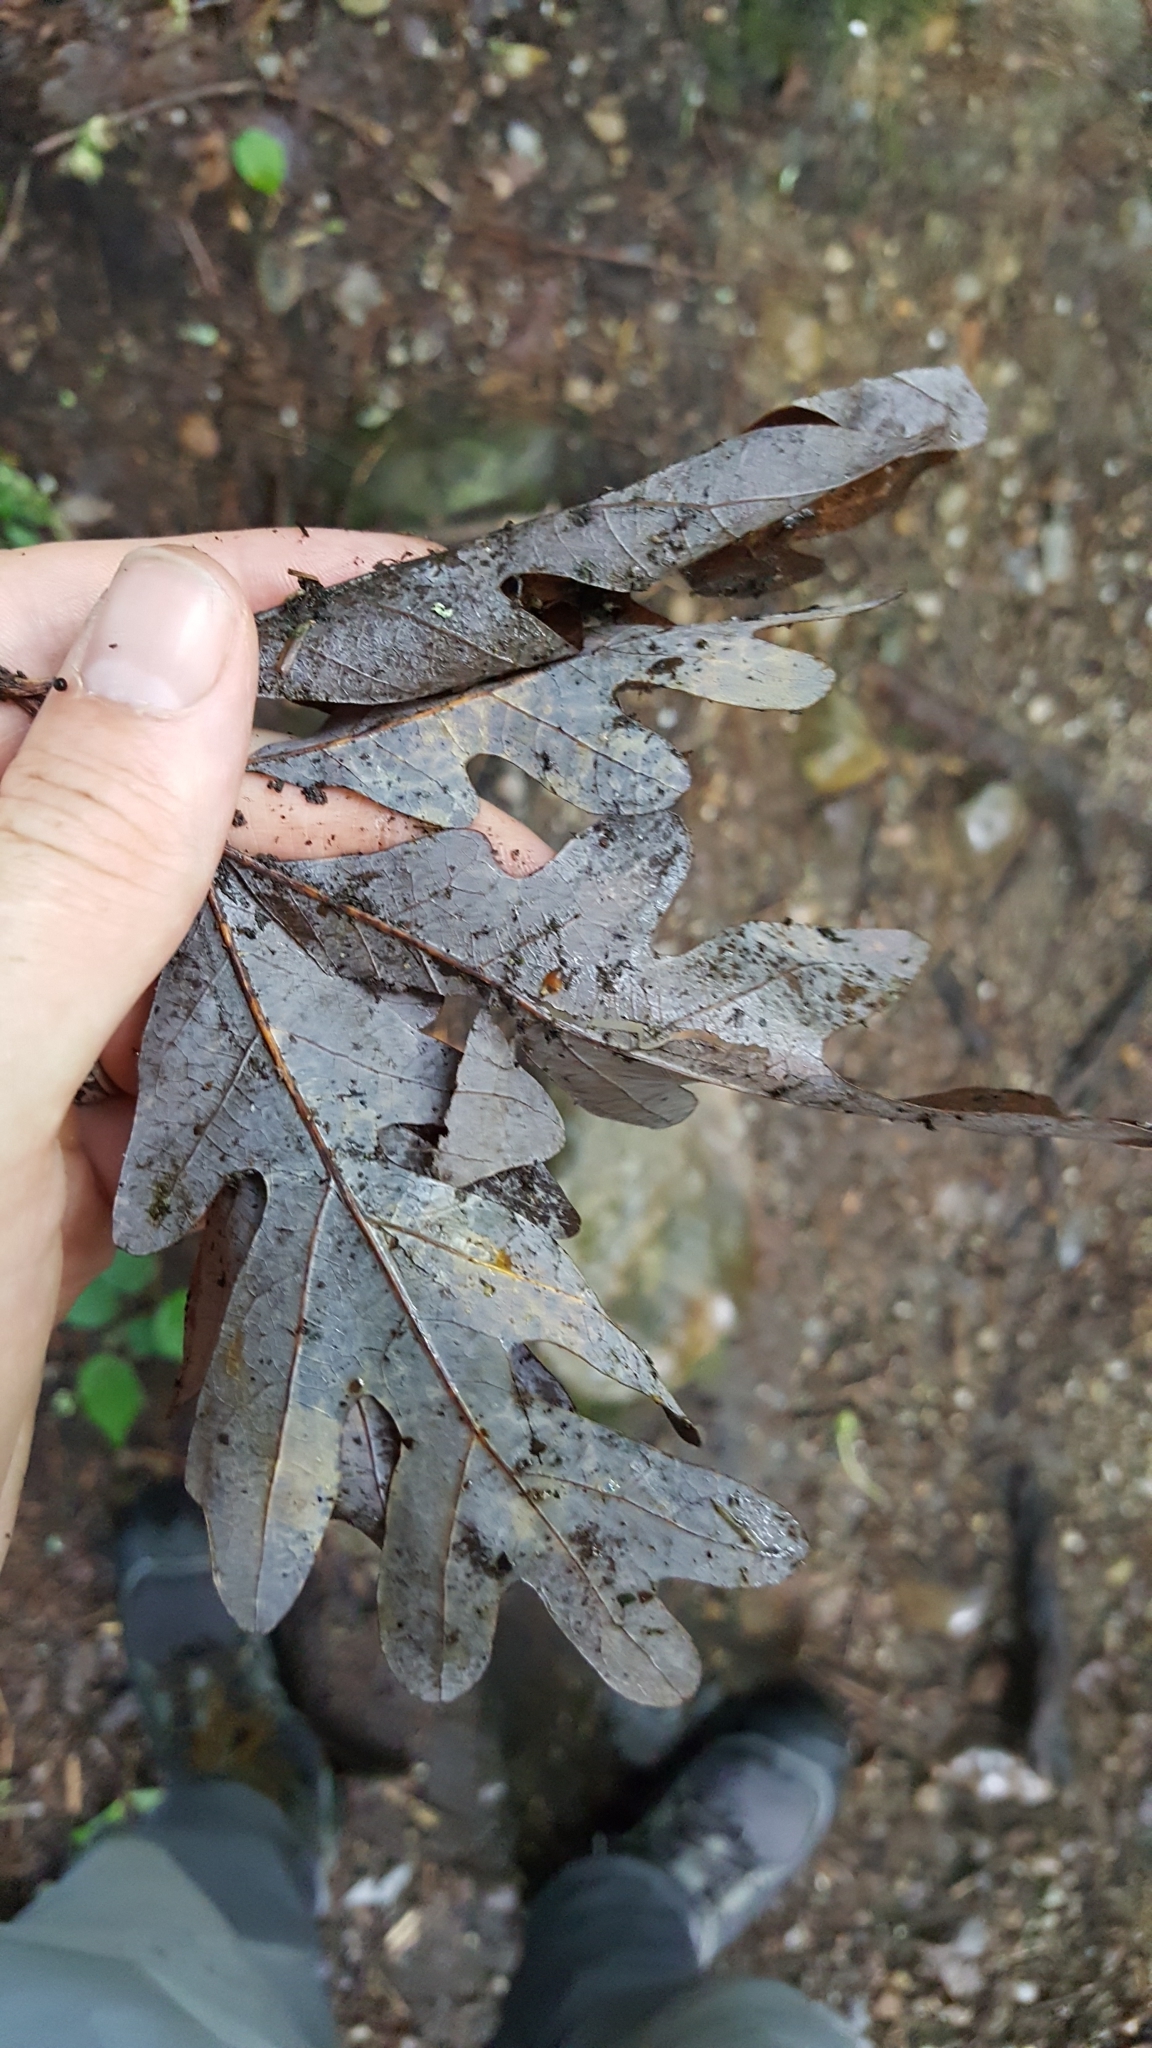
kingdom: Plantae
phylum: Tracheophyta
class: Magnoliopsida
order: Fagales
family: Fagaceae
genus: Quercus
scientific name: Quercus alba
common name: White oak
